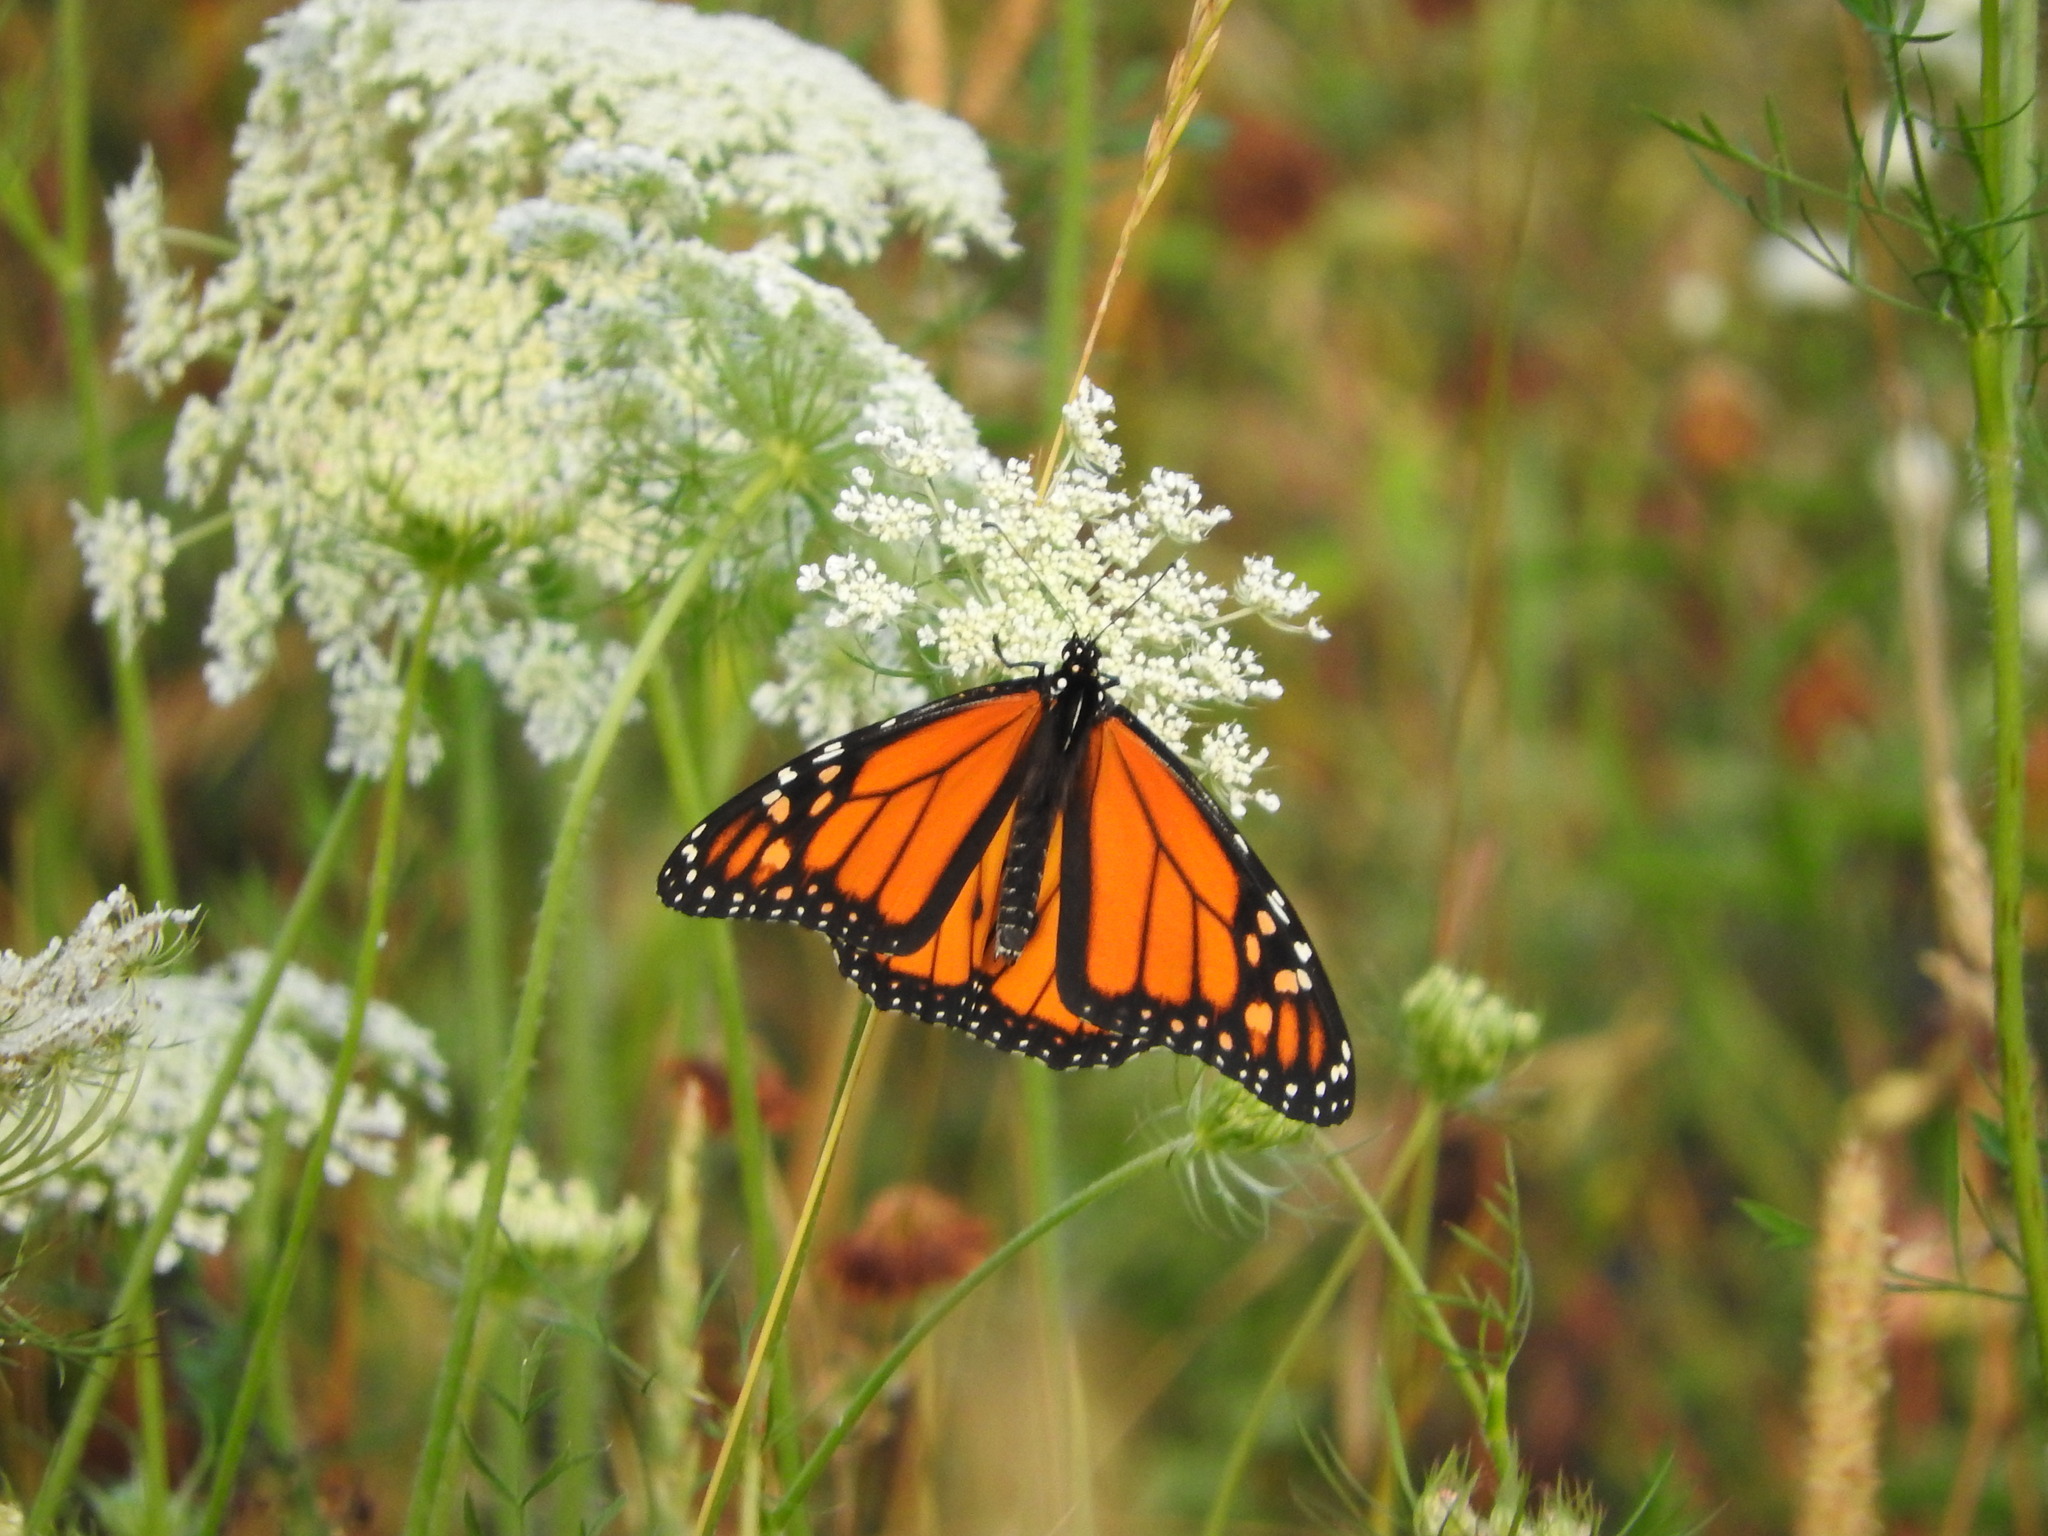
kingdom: Animalia
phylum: Arthropoda
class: Insecta
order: Lepidoptera
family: Nymphalidae
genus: Danaus
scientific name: Danaus plexippus
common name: Monarch
